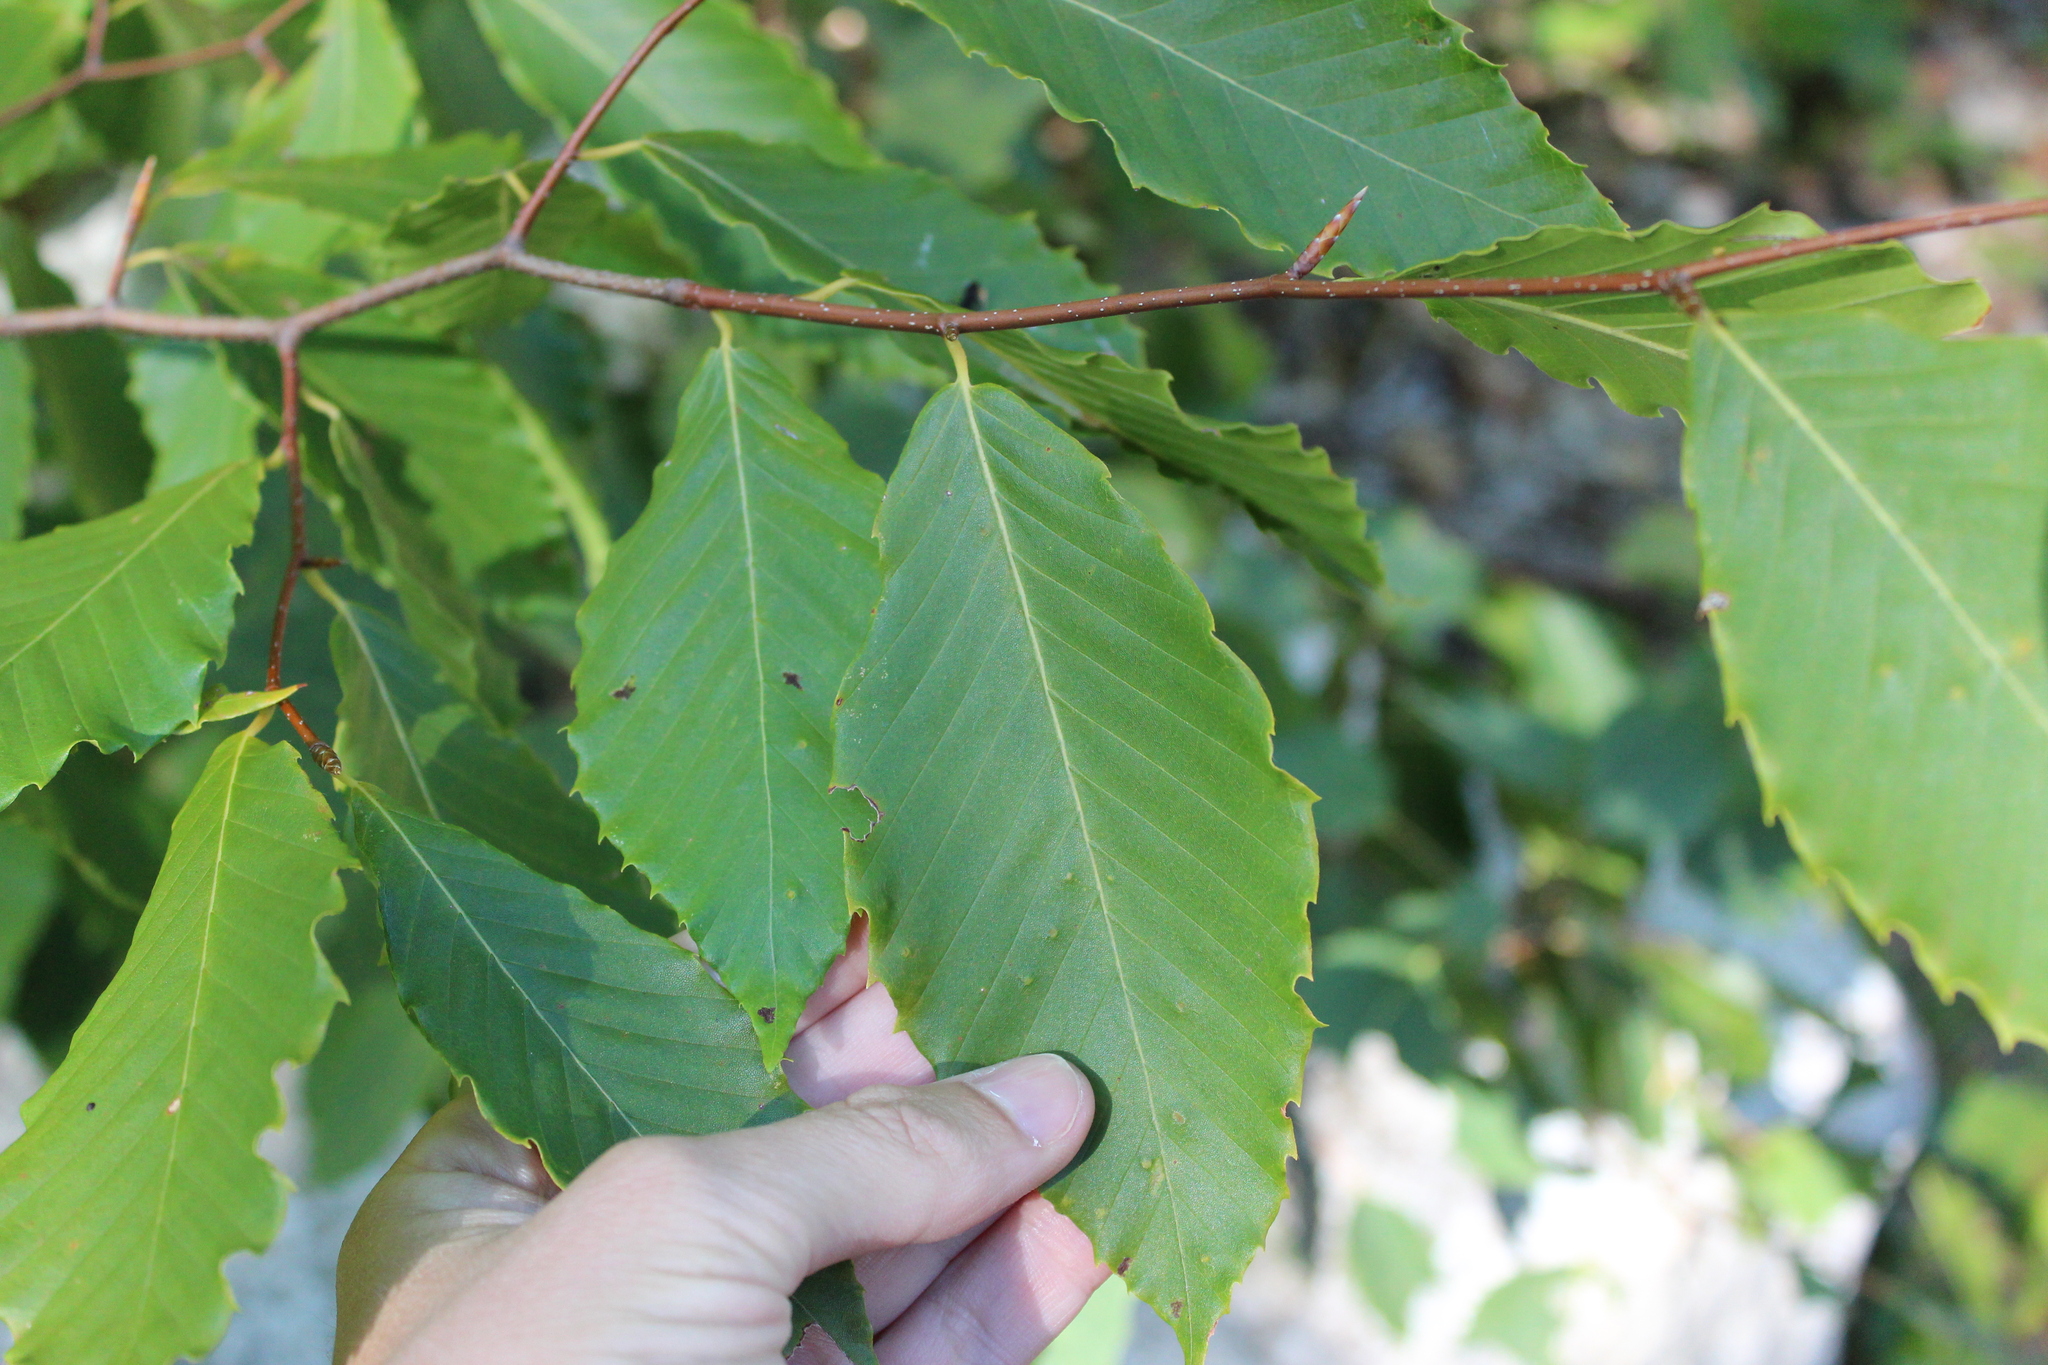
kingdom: Plantae
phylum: Tracheophyta
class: Magnoliopsida
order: Fagales
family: Fagaceae
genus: Fagus
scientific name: Fagus grandifolia
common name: American beech
